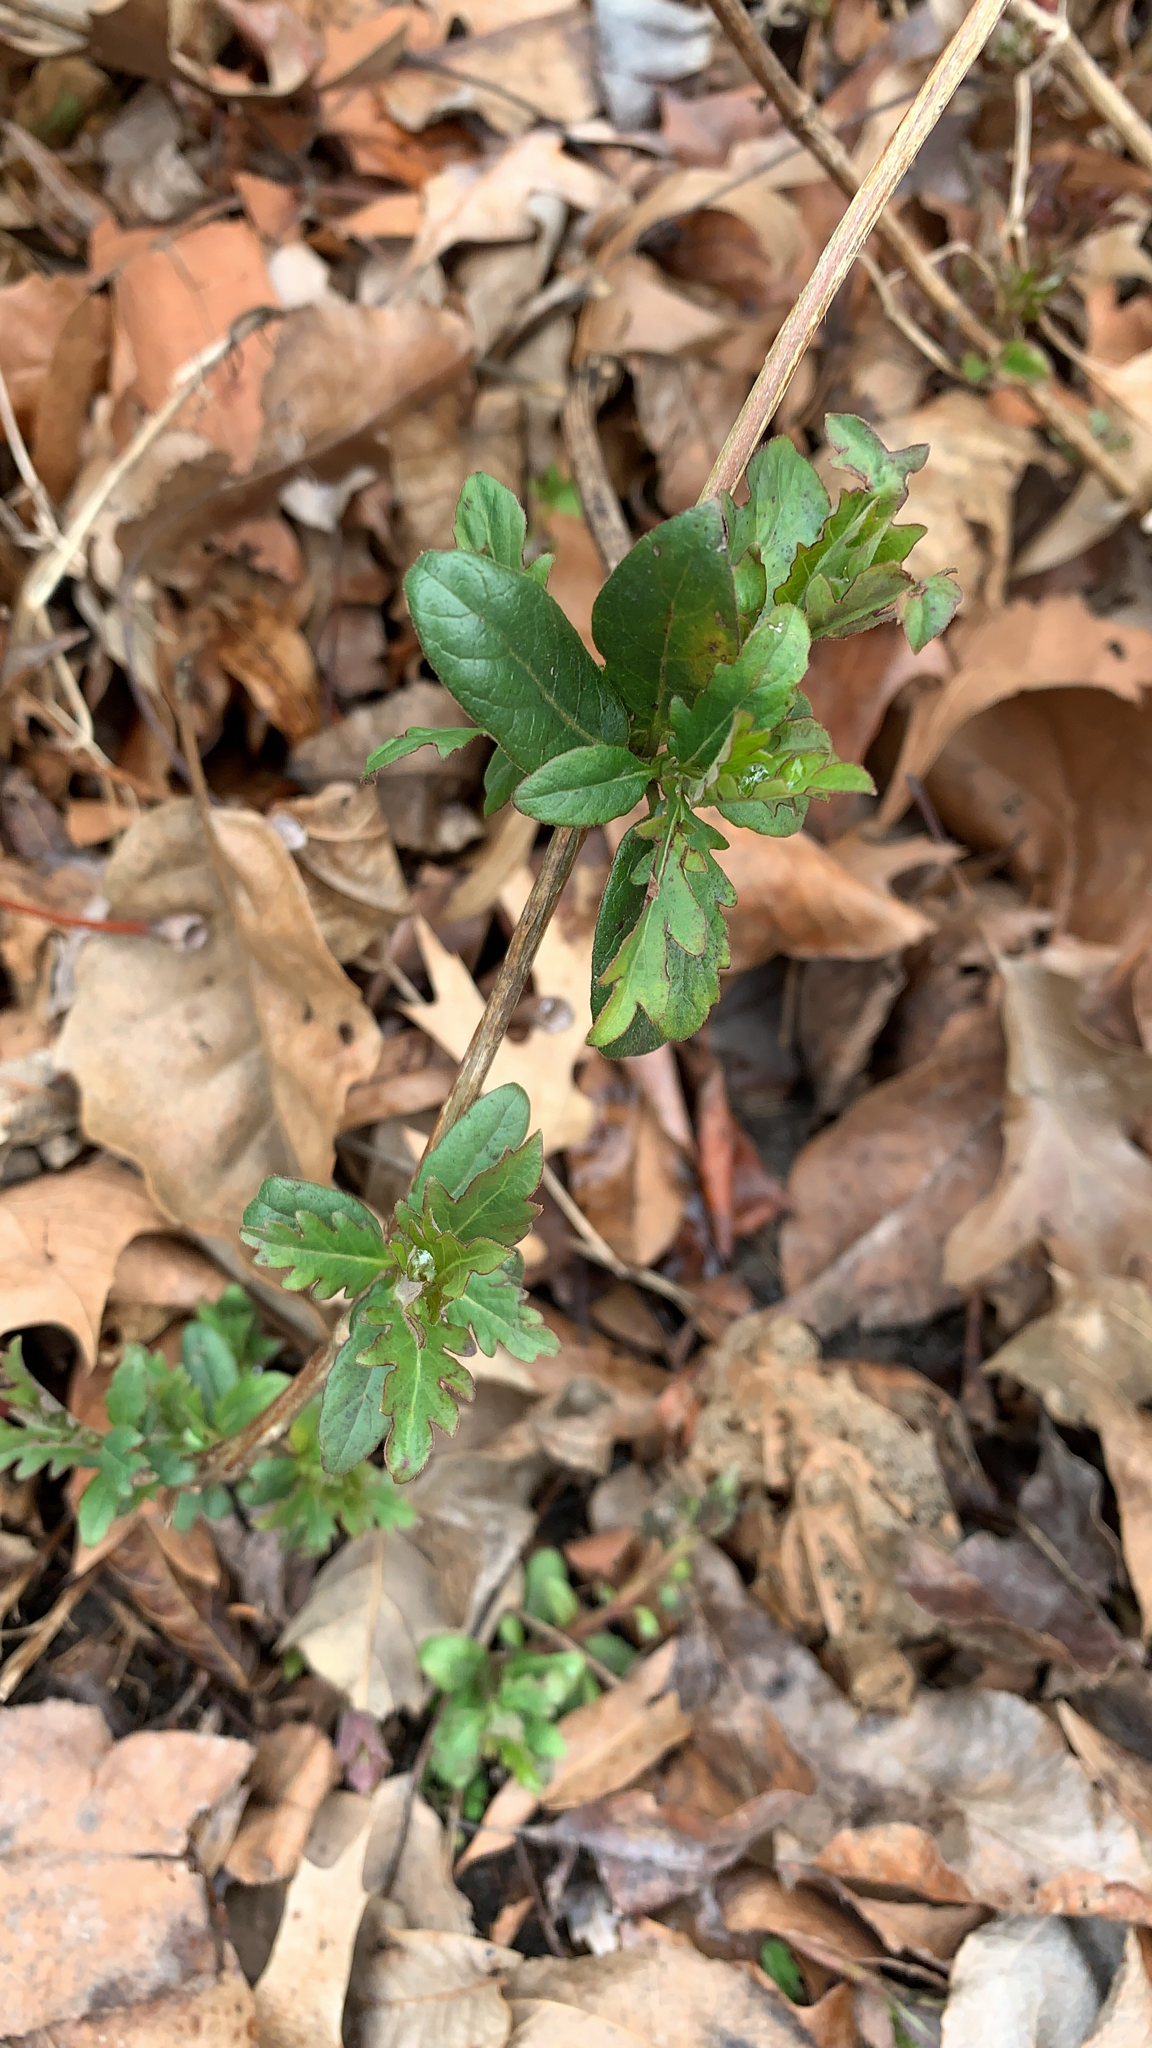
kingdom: Plantae
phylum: Tracheophyta
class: Magnoliopsida
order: Dipsacales
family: Caprifoliaceae
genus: Lonicera
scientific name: Lonicera japonica
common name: Japanese honeysuckle
